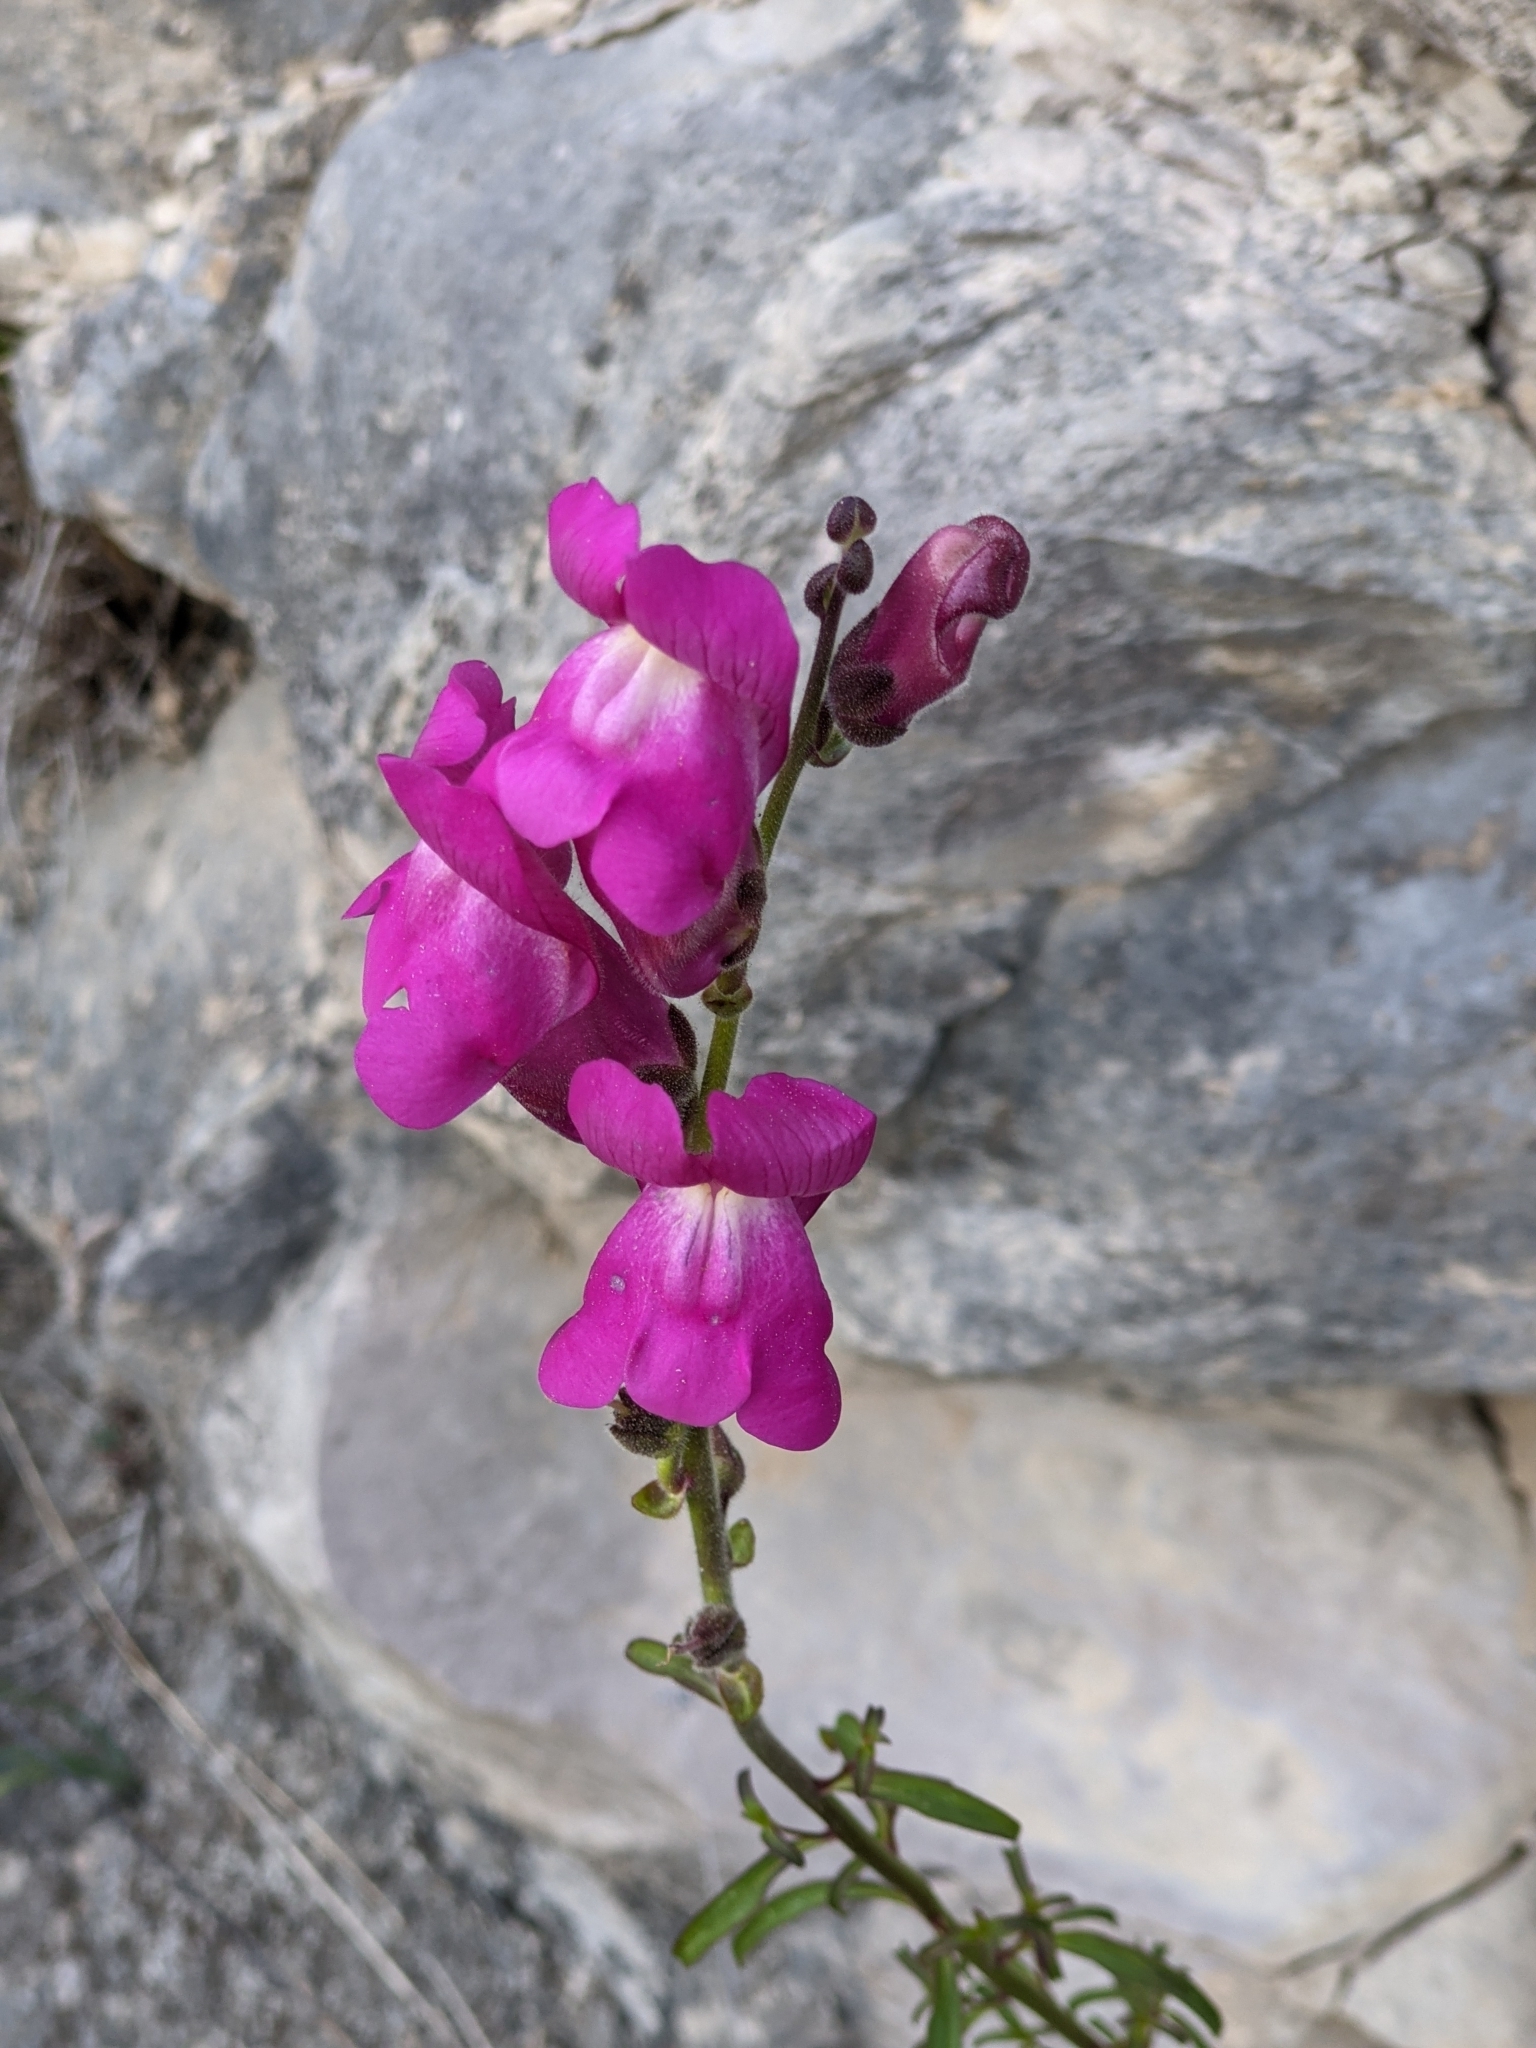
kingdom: Plantae
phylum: Tracheophyta
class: Magnoliopsida
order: Lamiales
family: Plantaginaceae
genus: Antirrhinum
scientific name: Antirrhinum majus
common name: Snapdragon
